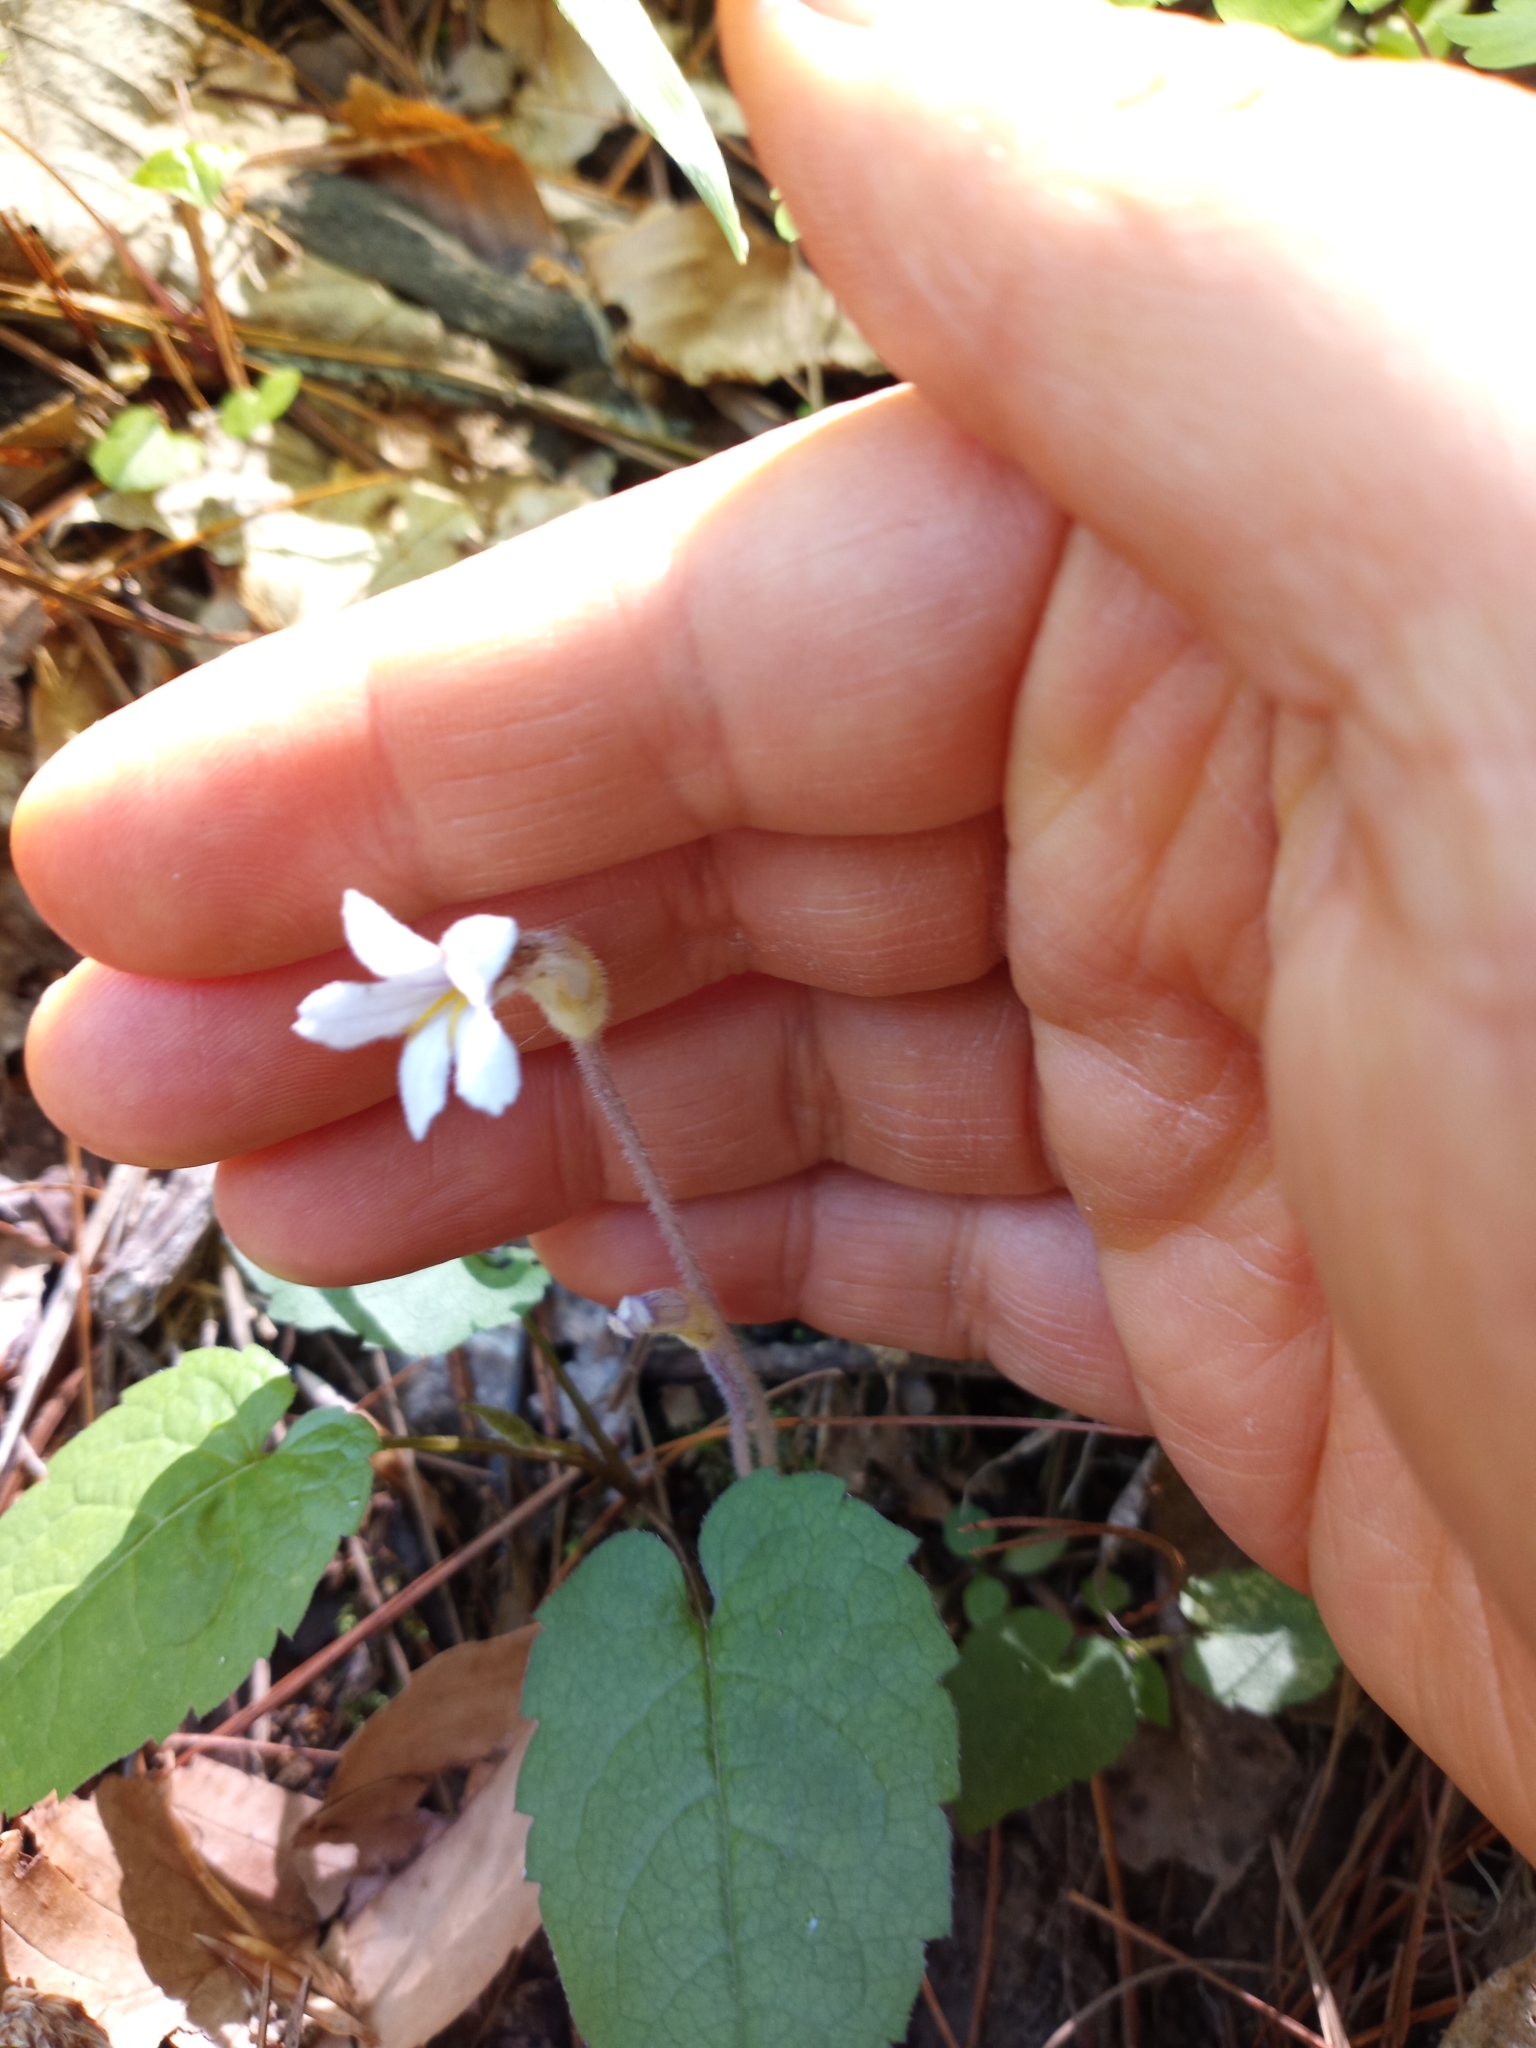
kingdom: Plantae
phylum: Tracheophyta
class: Magnoliopsida
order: Lamiales
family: Orobanchaceae
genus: Aphyllon
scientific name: Aphyllon uniflorum
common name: One-flowered broomrape
